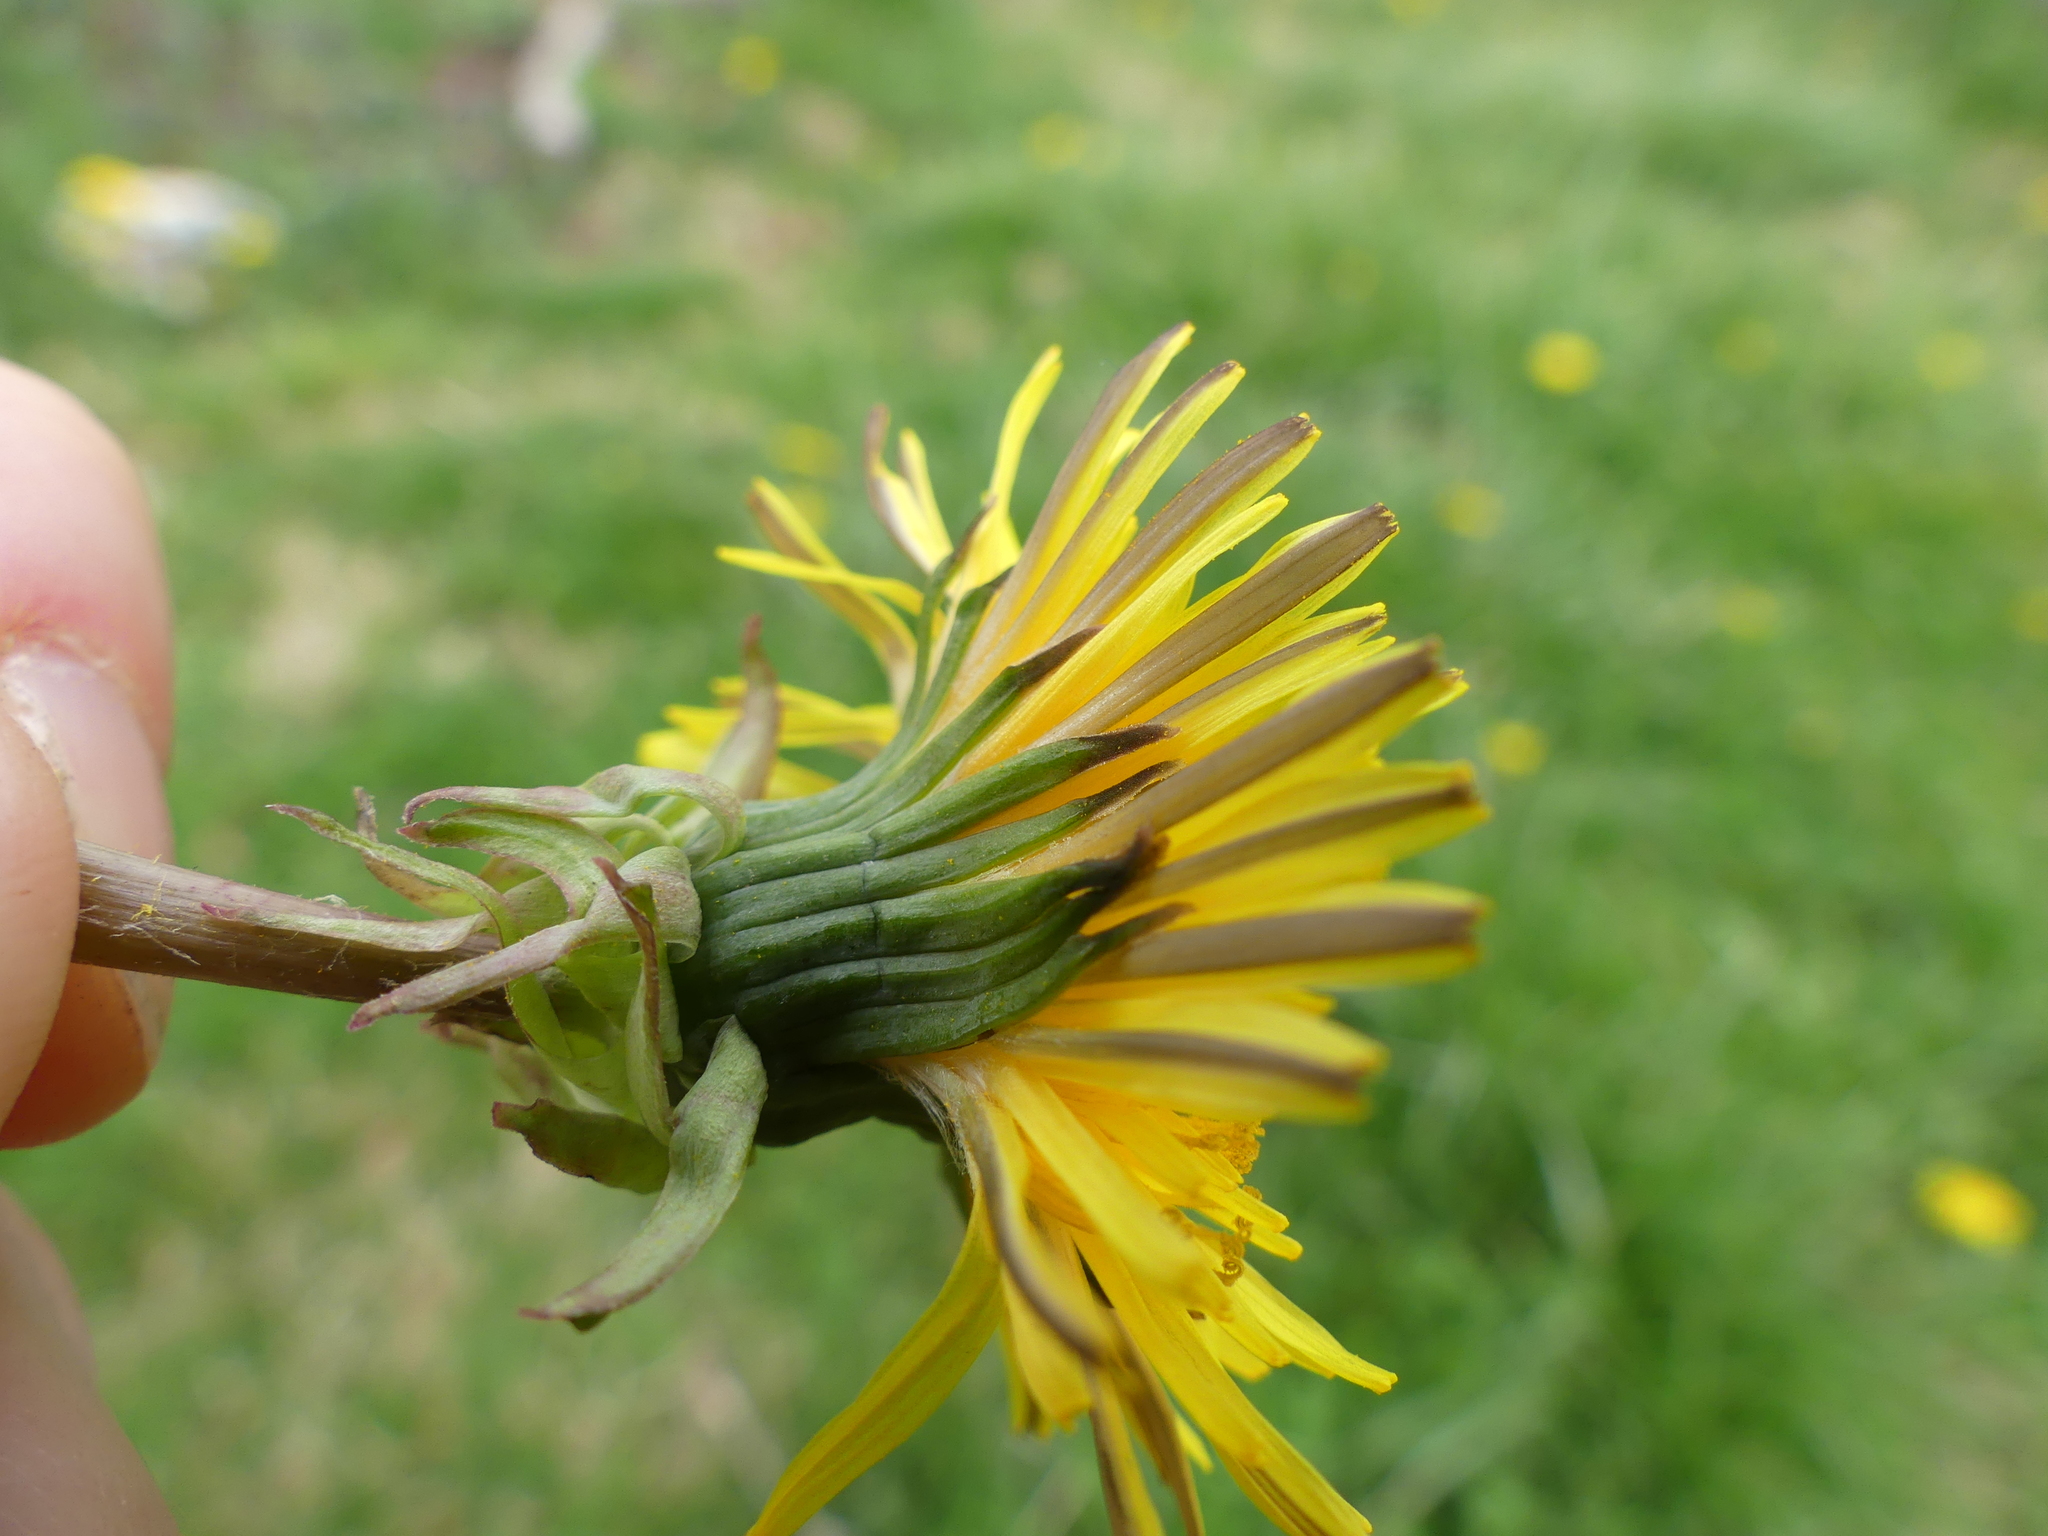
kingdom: Plantae
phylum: Tracheophyta
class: Magnoliopsida
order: Asterales
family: Asteraceae
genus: Taraxacum
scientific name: Taraxacum officinale
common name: Common dandelion
